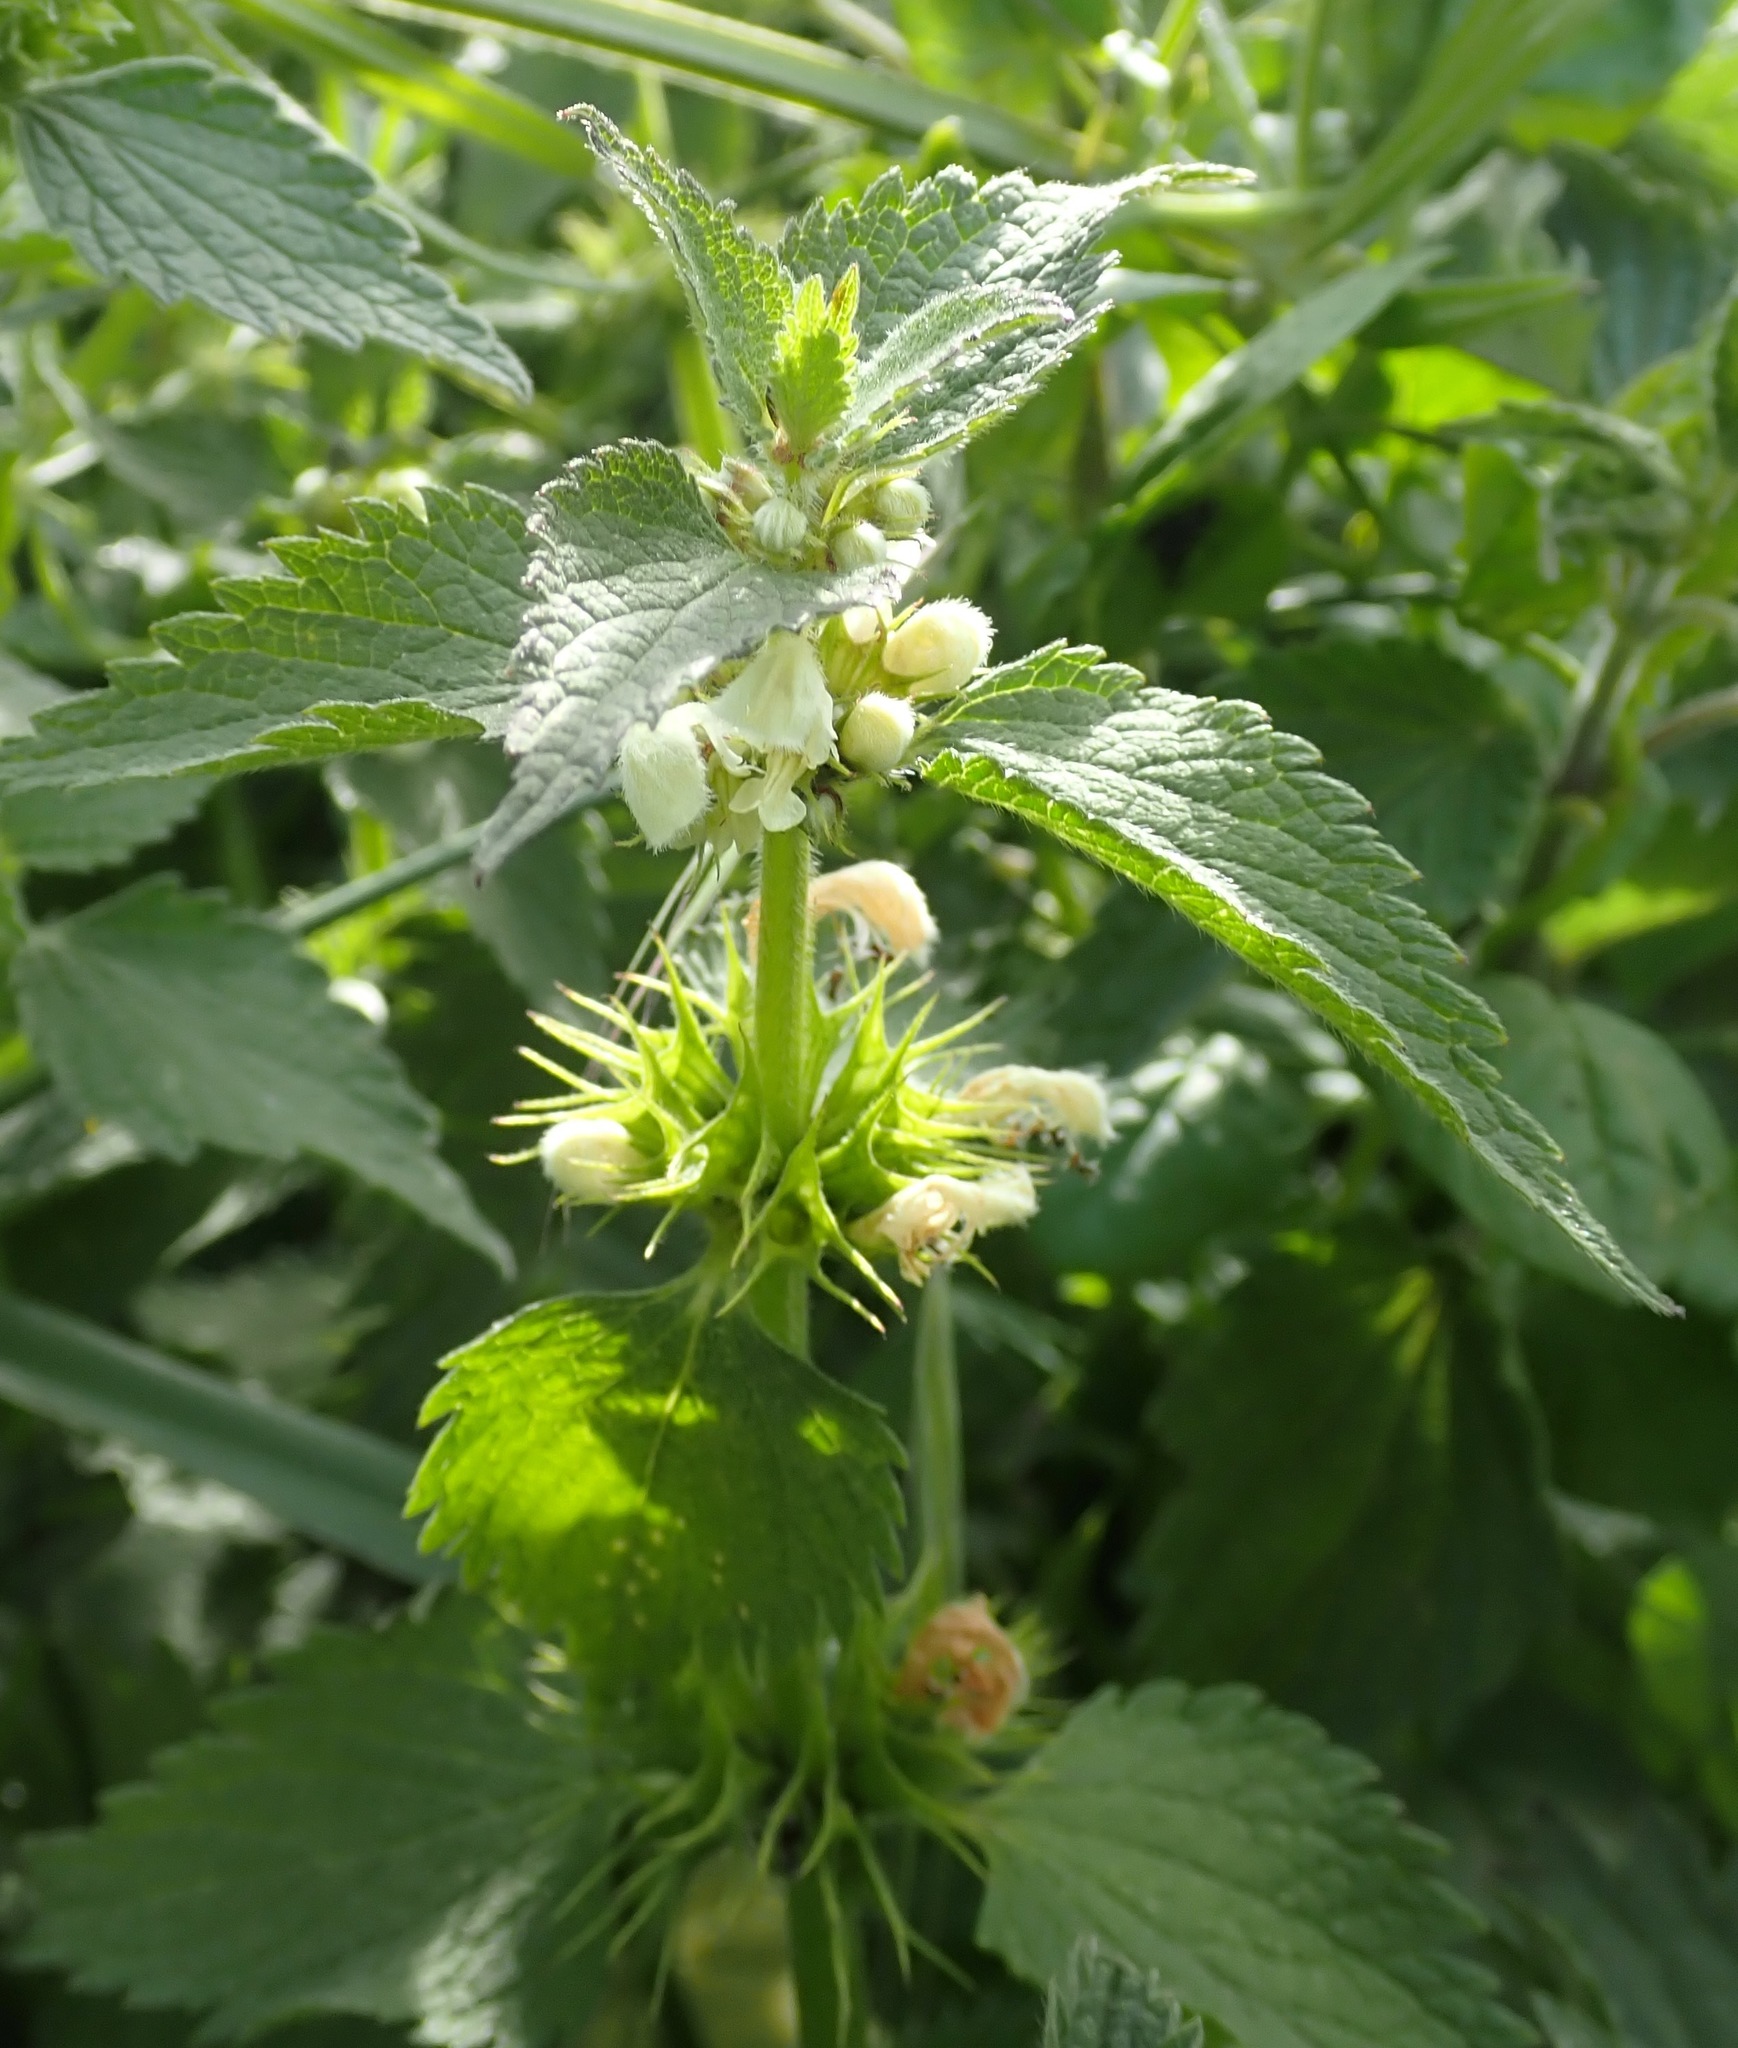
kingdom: Plantae
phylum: Tracheophyta
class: Magnoliopsida
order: Lamiales
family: Lamiaceae
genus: Lamium
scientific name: Lamium album
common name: White dead-nettle
